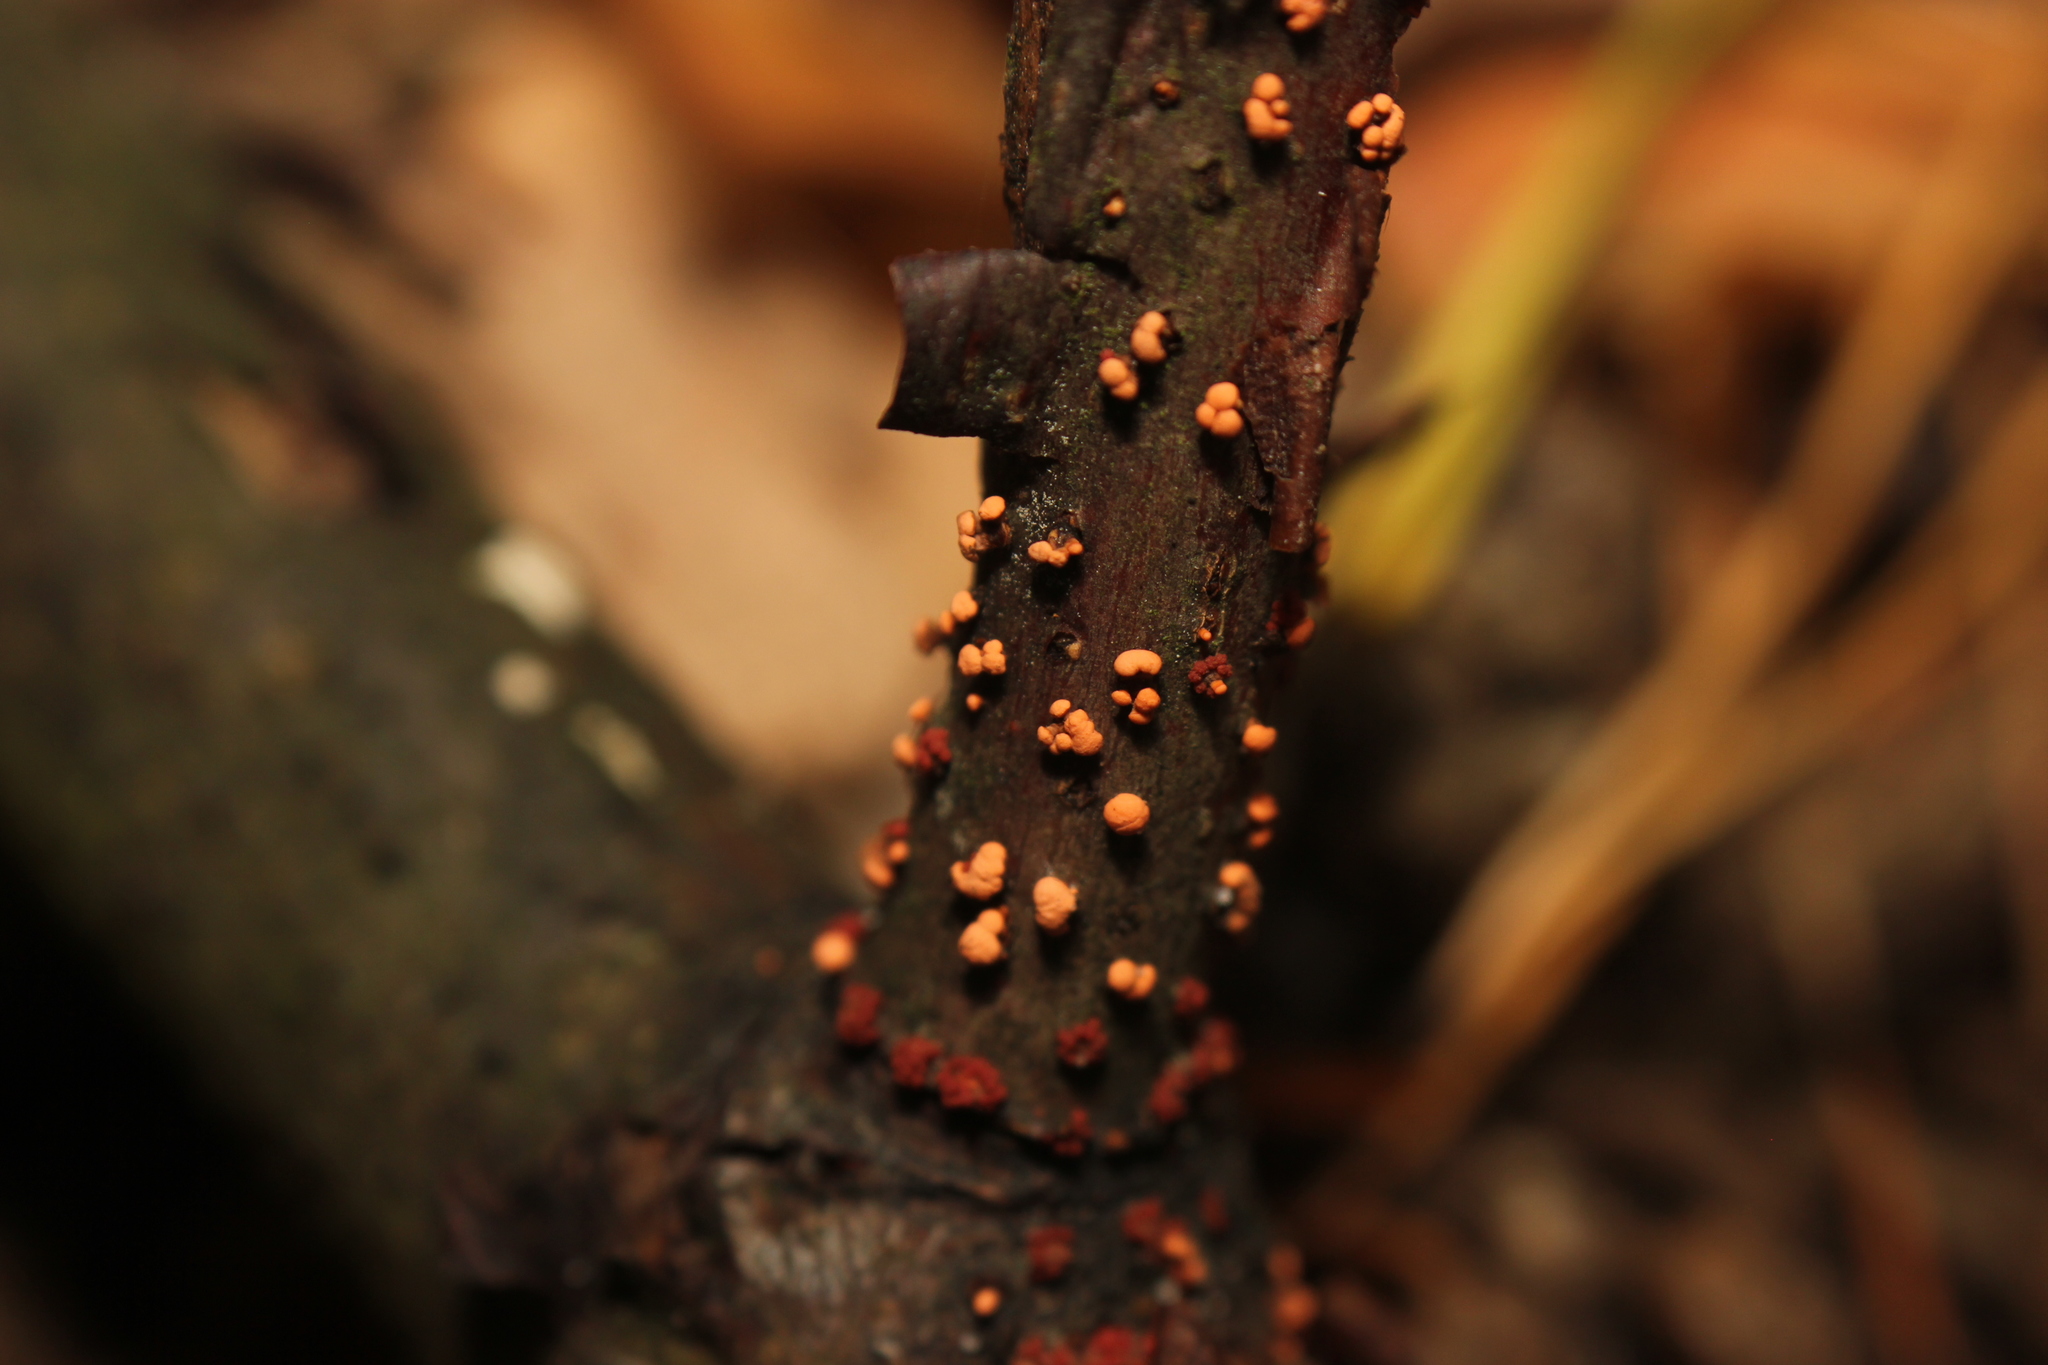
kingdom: Fungi
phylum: Ascomycota
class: Sordariomycetes
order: Hypocreales
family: Nectriaceae
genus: Nectria
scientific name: Nectria cinnabarina
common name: Coral spot
